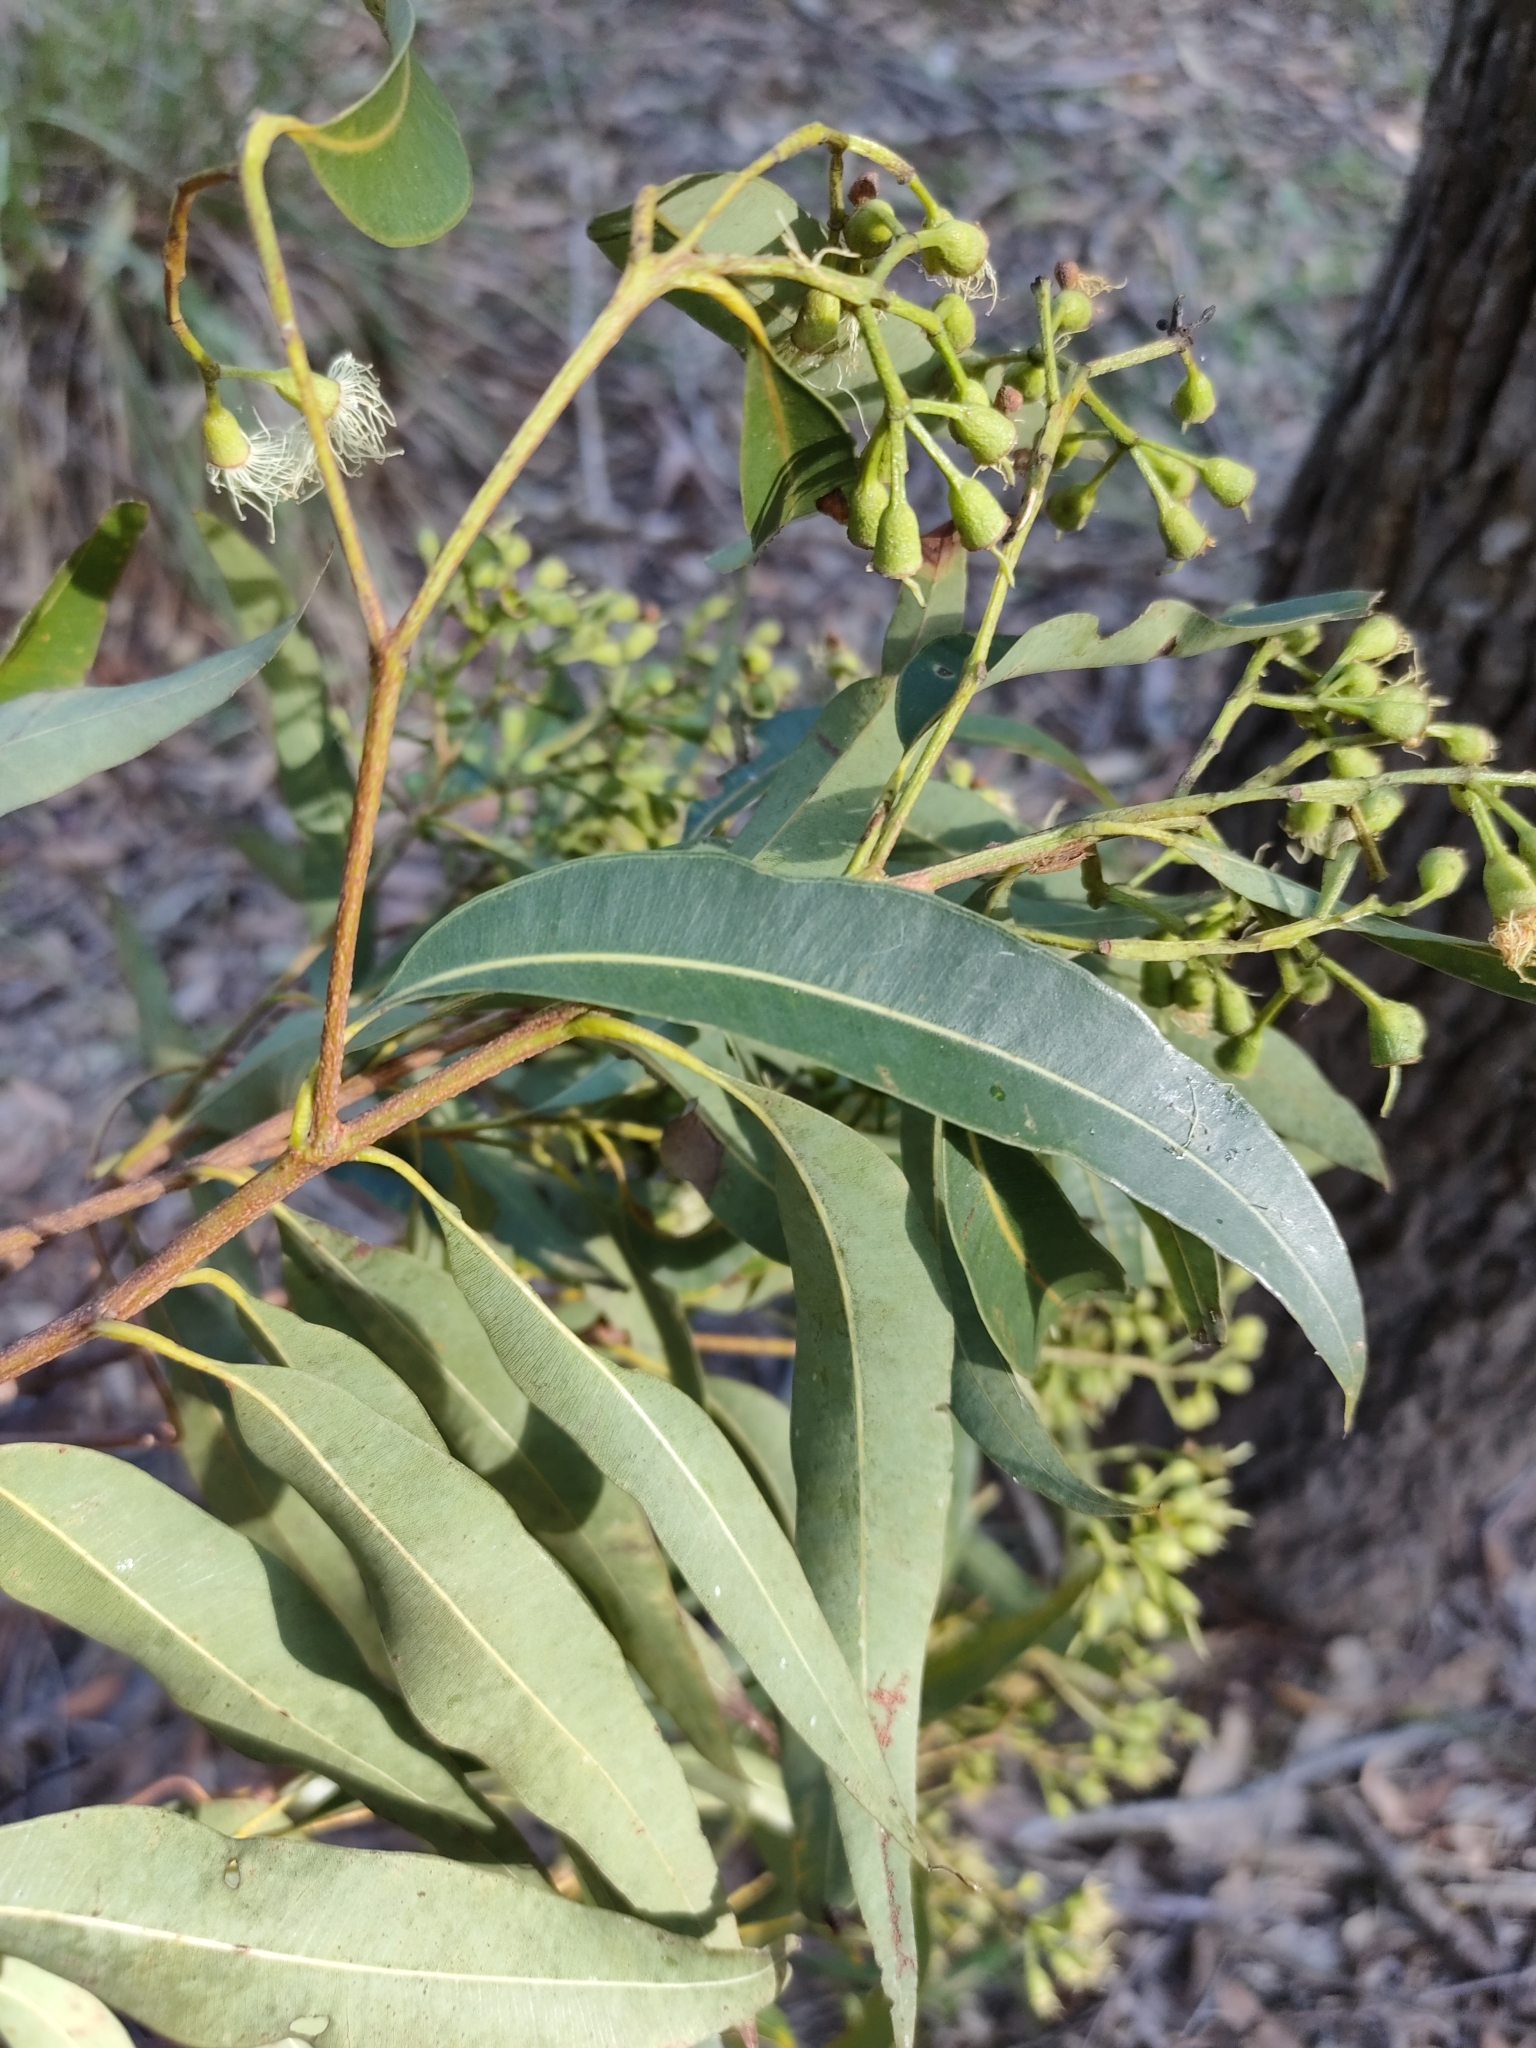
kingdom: Plantae
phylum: Tracheophyta
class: Magnoliopsida
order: Myrtales
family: Myrtaceae
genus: Corymbia
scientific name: Corymbia intermedia
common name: Pink-bloodwood
